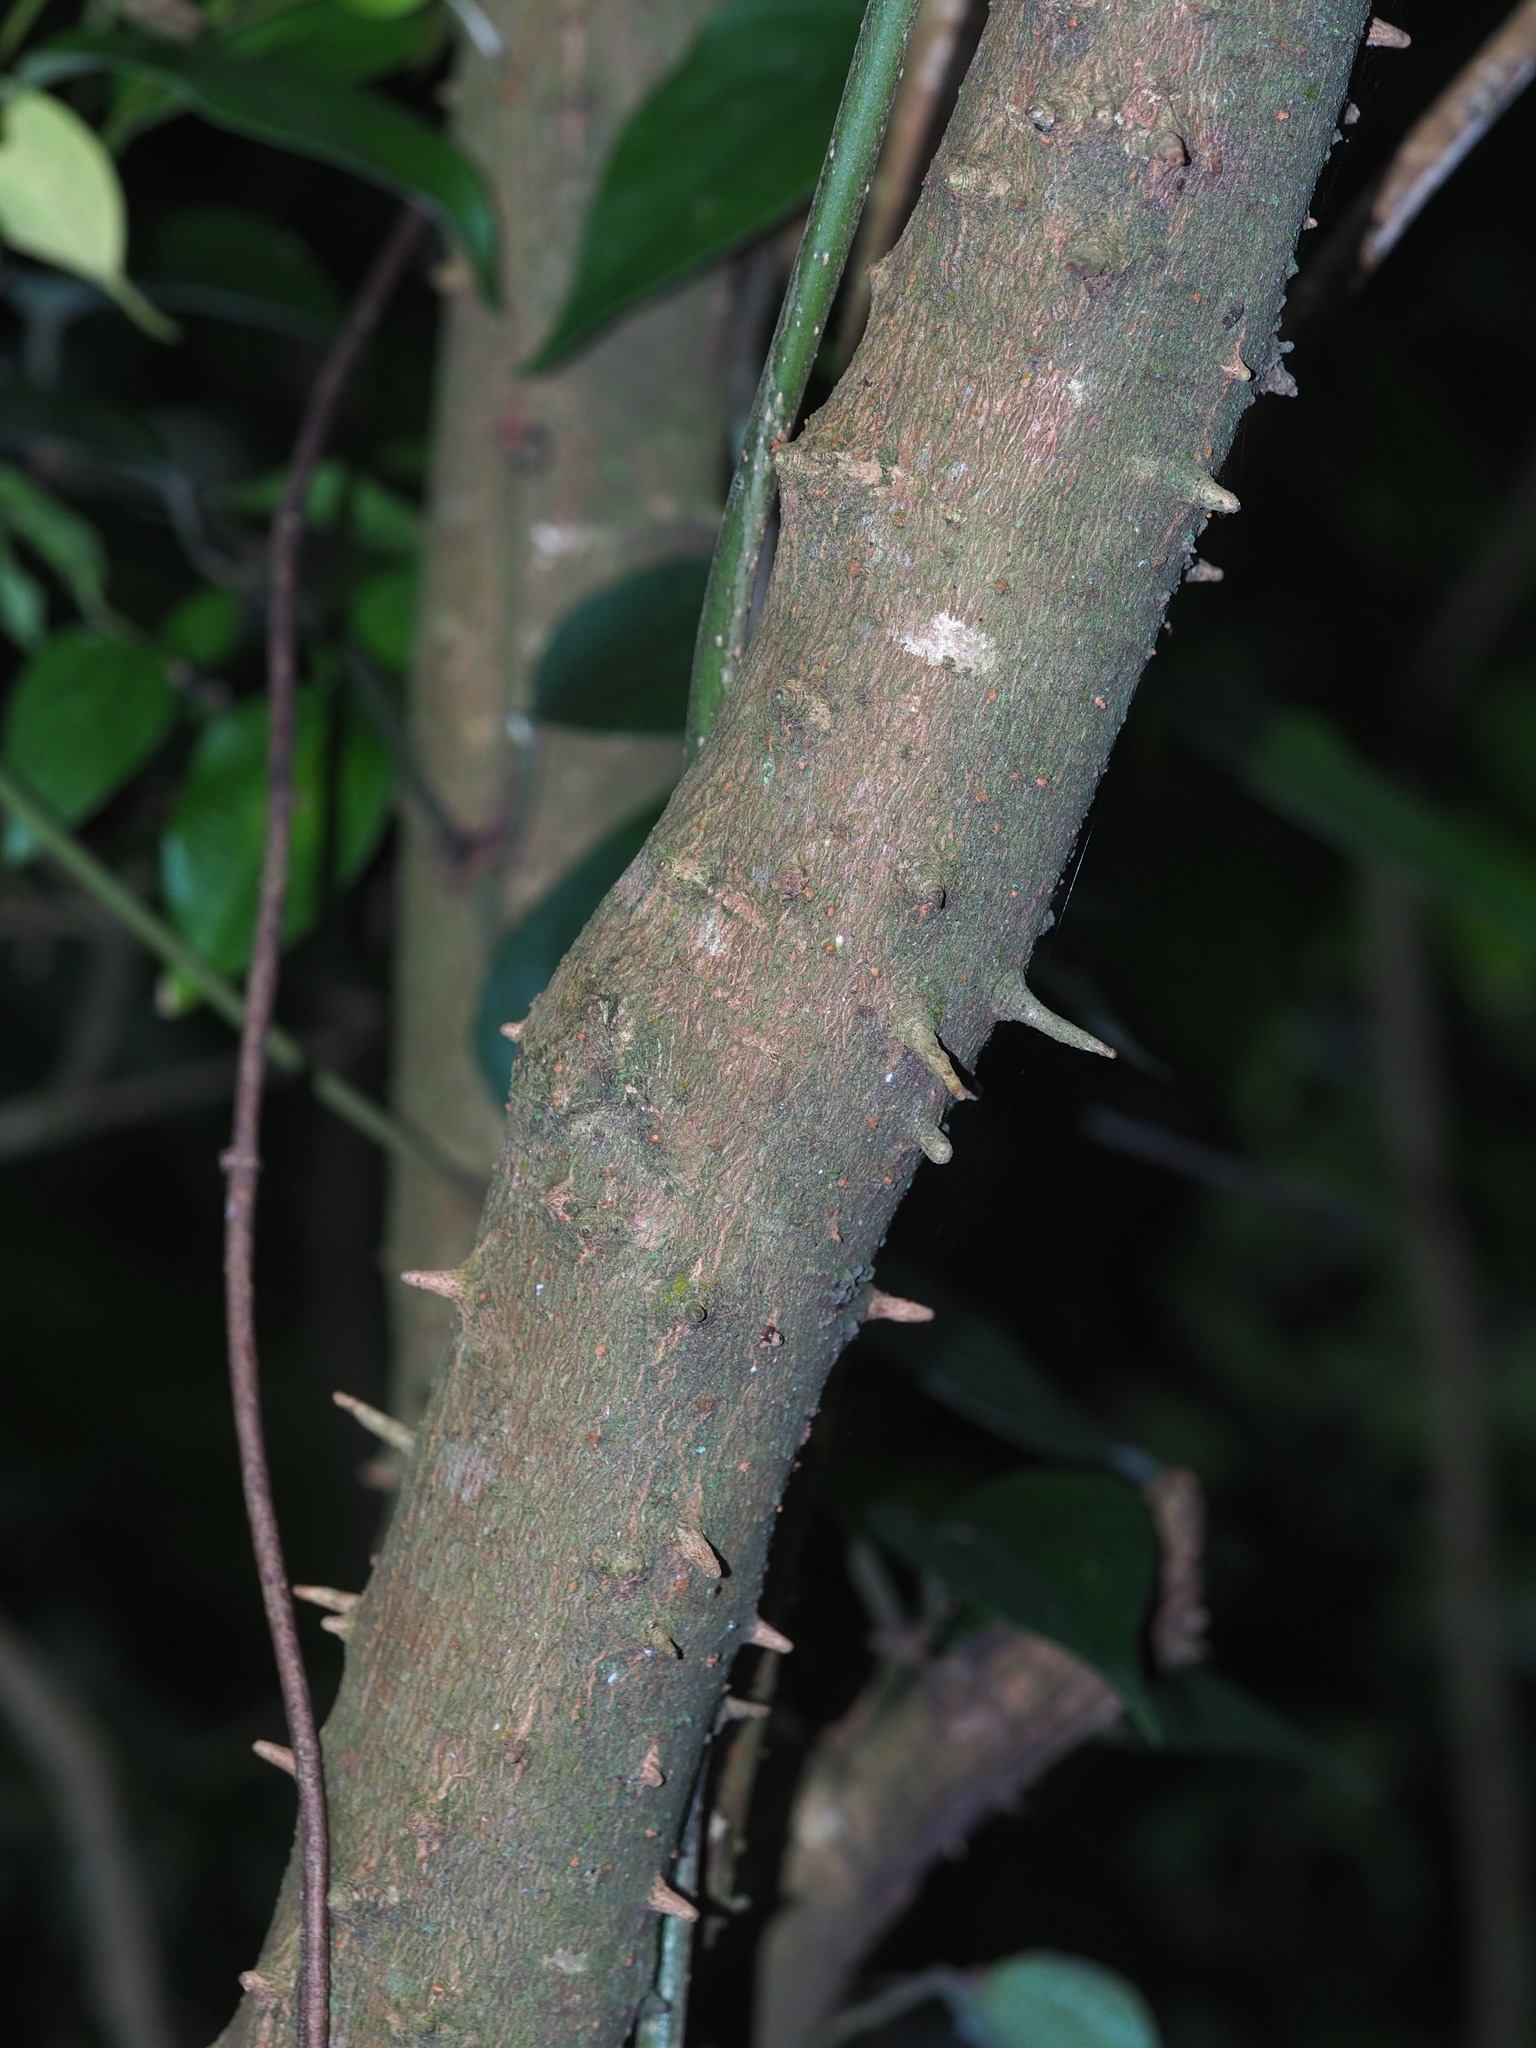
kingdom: Plantae
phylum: Tracheophyta
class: Magnoliopsida
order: Malpighiales
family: Phyllanthaceae
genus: Bridelia
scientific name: Bridelia balansae
